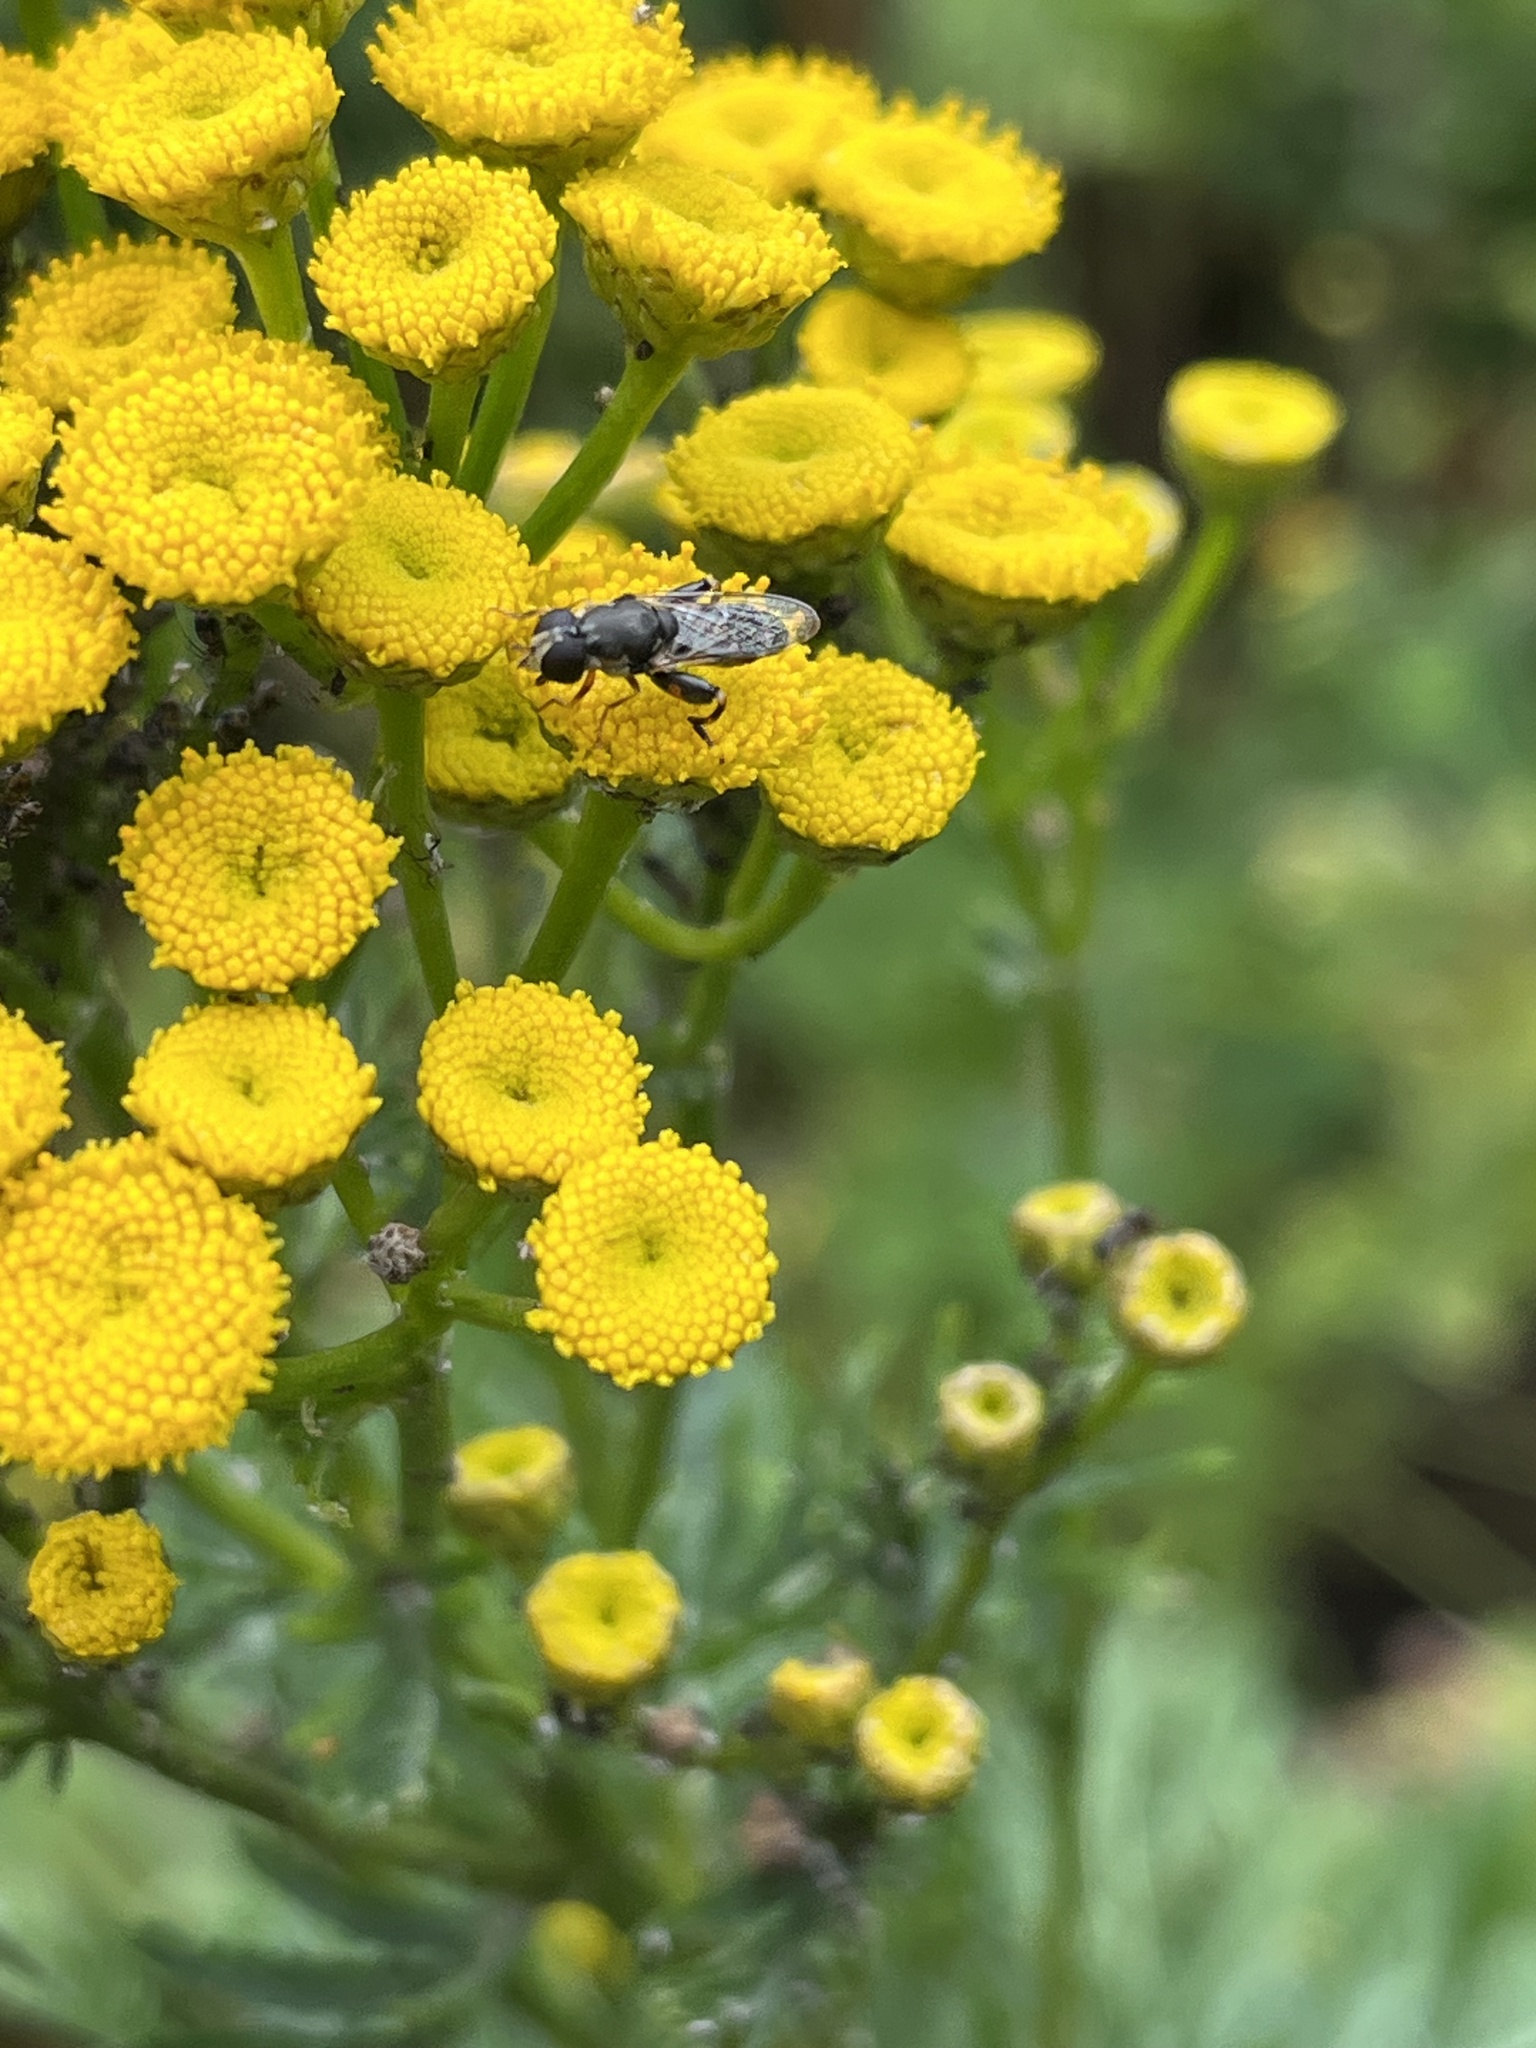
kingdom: Animalia
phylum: Arthropoda
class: Insecta
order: Diptera
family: Syrphidae
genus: Syritta
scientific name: Syritta pipiens
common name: Hover fly
